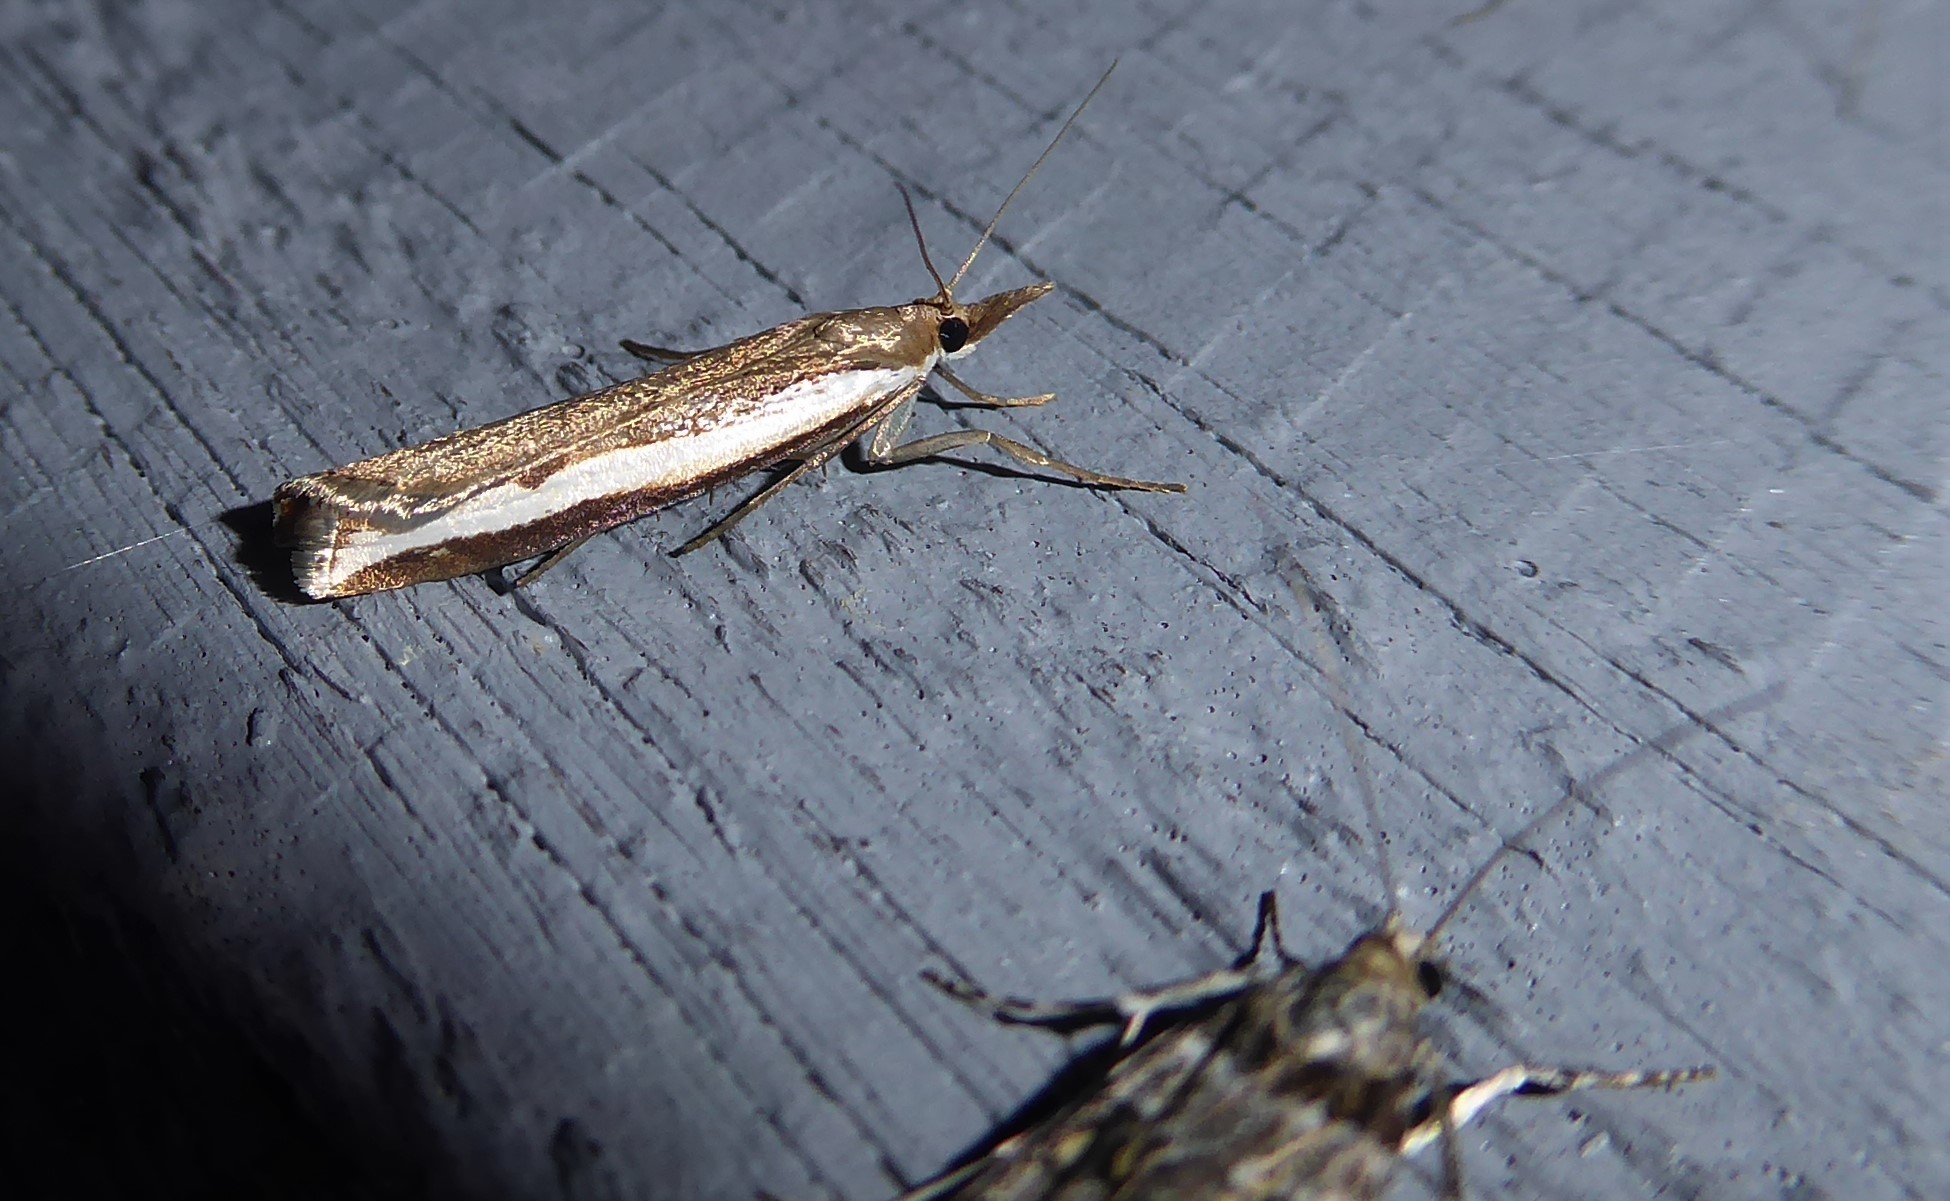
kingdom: Animalia
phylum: Arthropoda
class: Insecta
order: Lepidoptera
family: Crambidae
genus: Orocrambus
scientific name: Orocrambus flexuosellus
